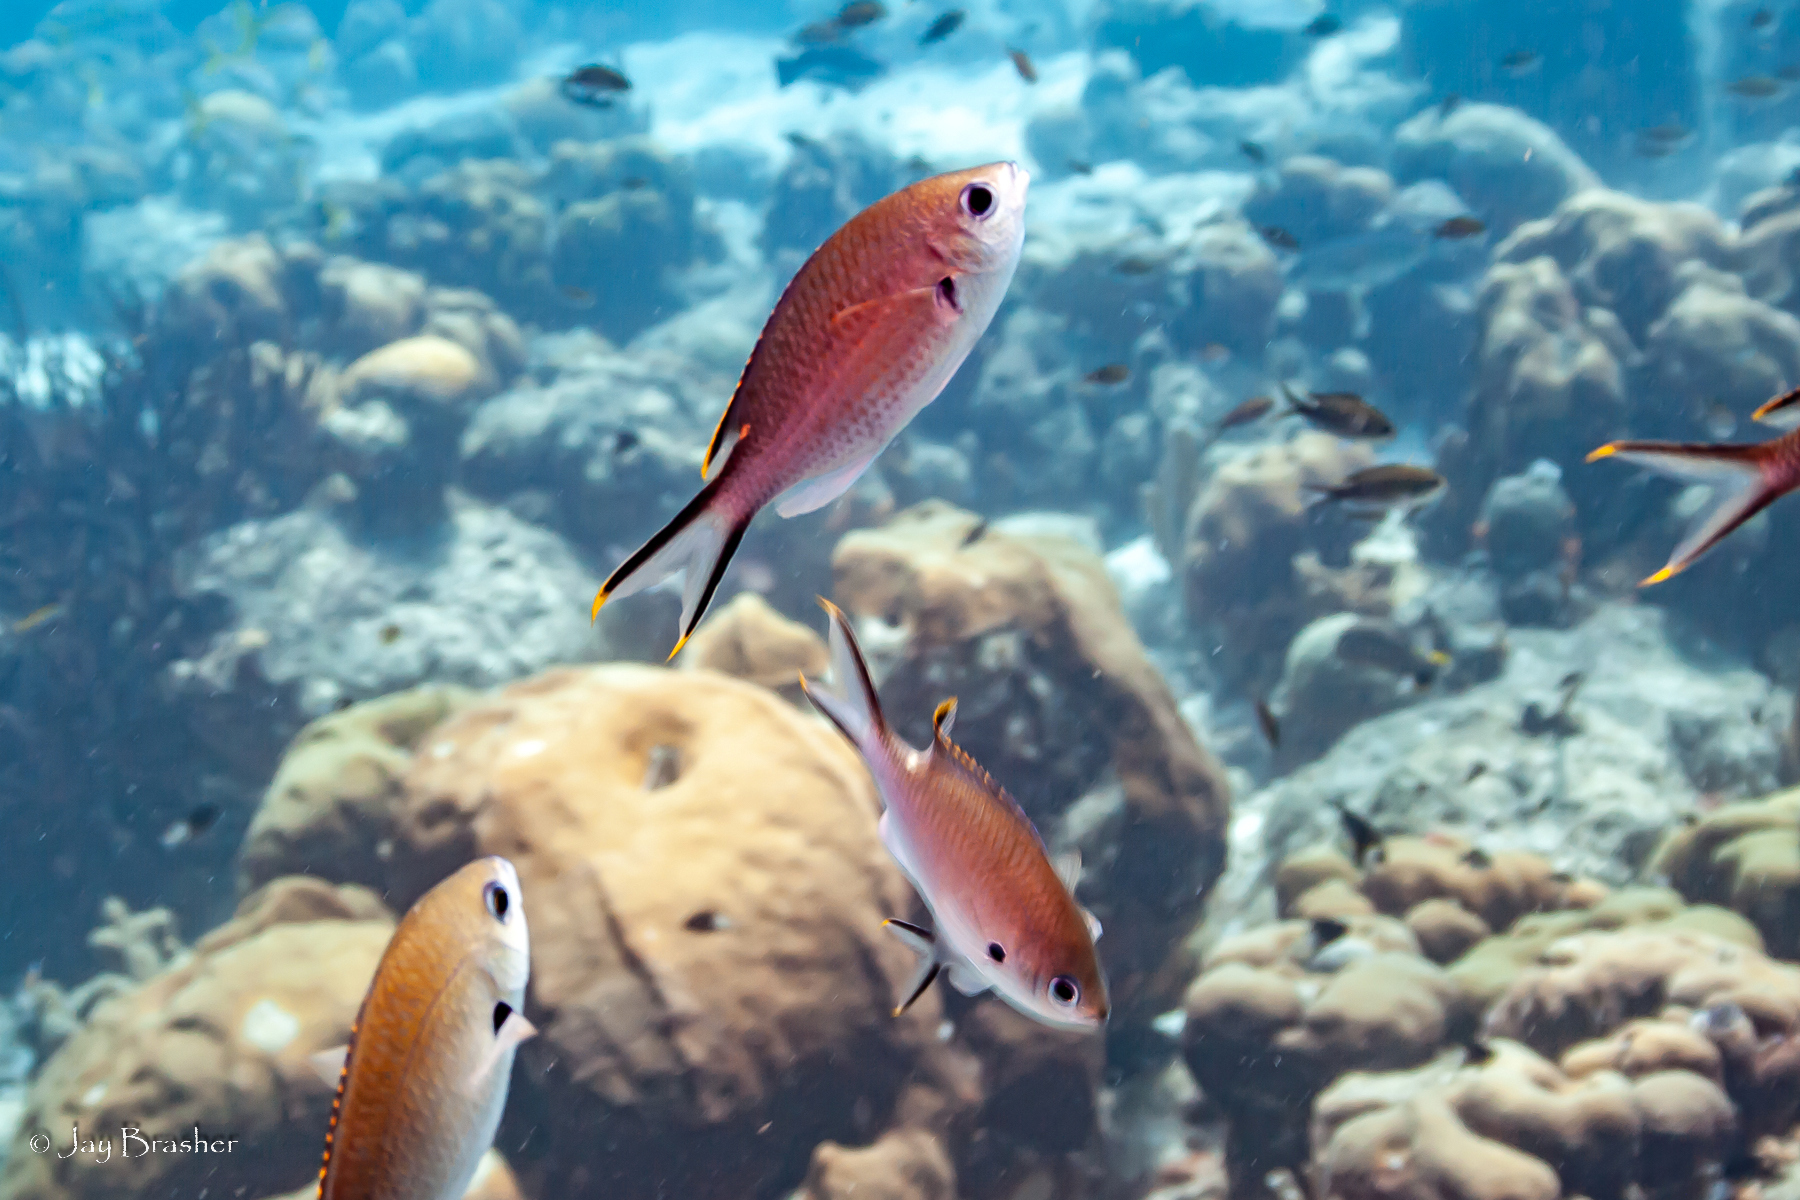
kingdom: Animalia
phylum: Chordata
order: Perciformes
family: Pomacentridae
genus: Chromis
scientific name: Chromis multilineata
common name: Brown chromis
